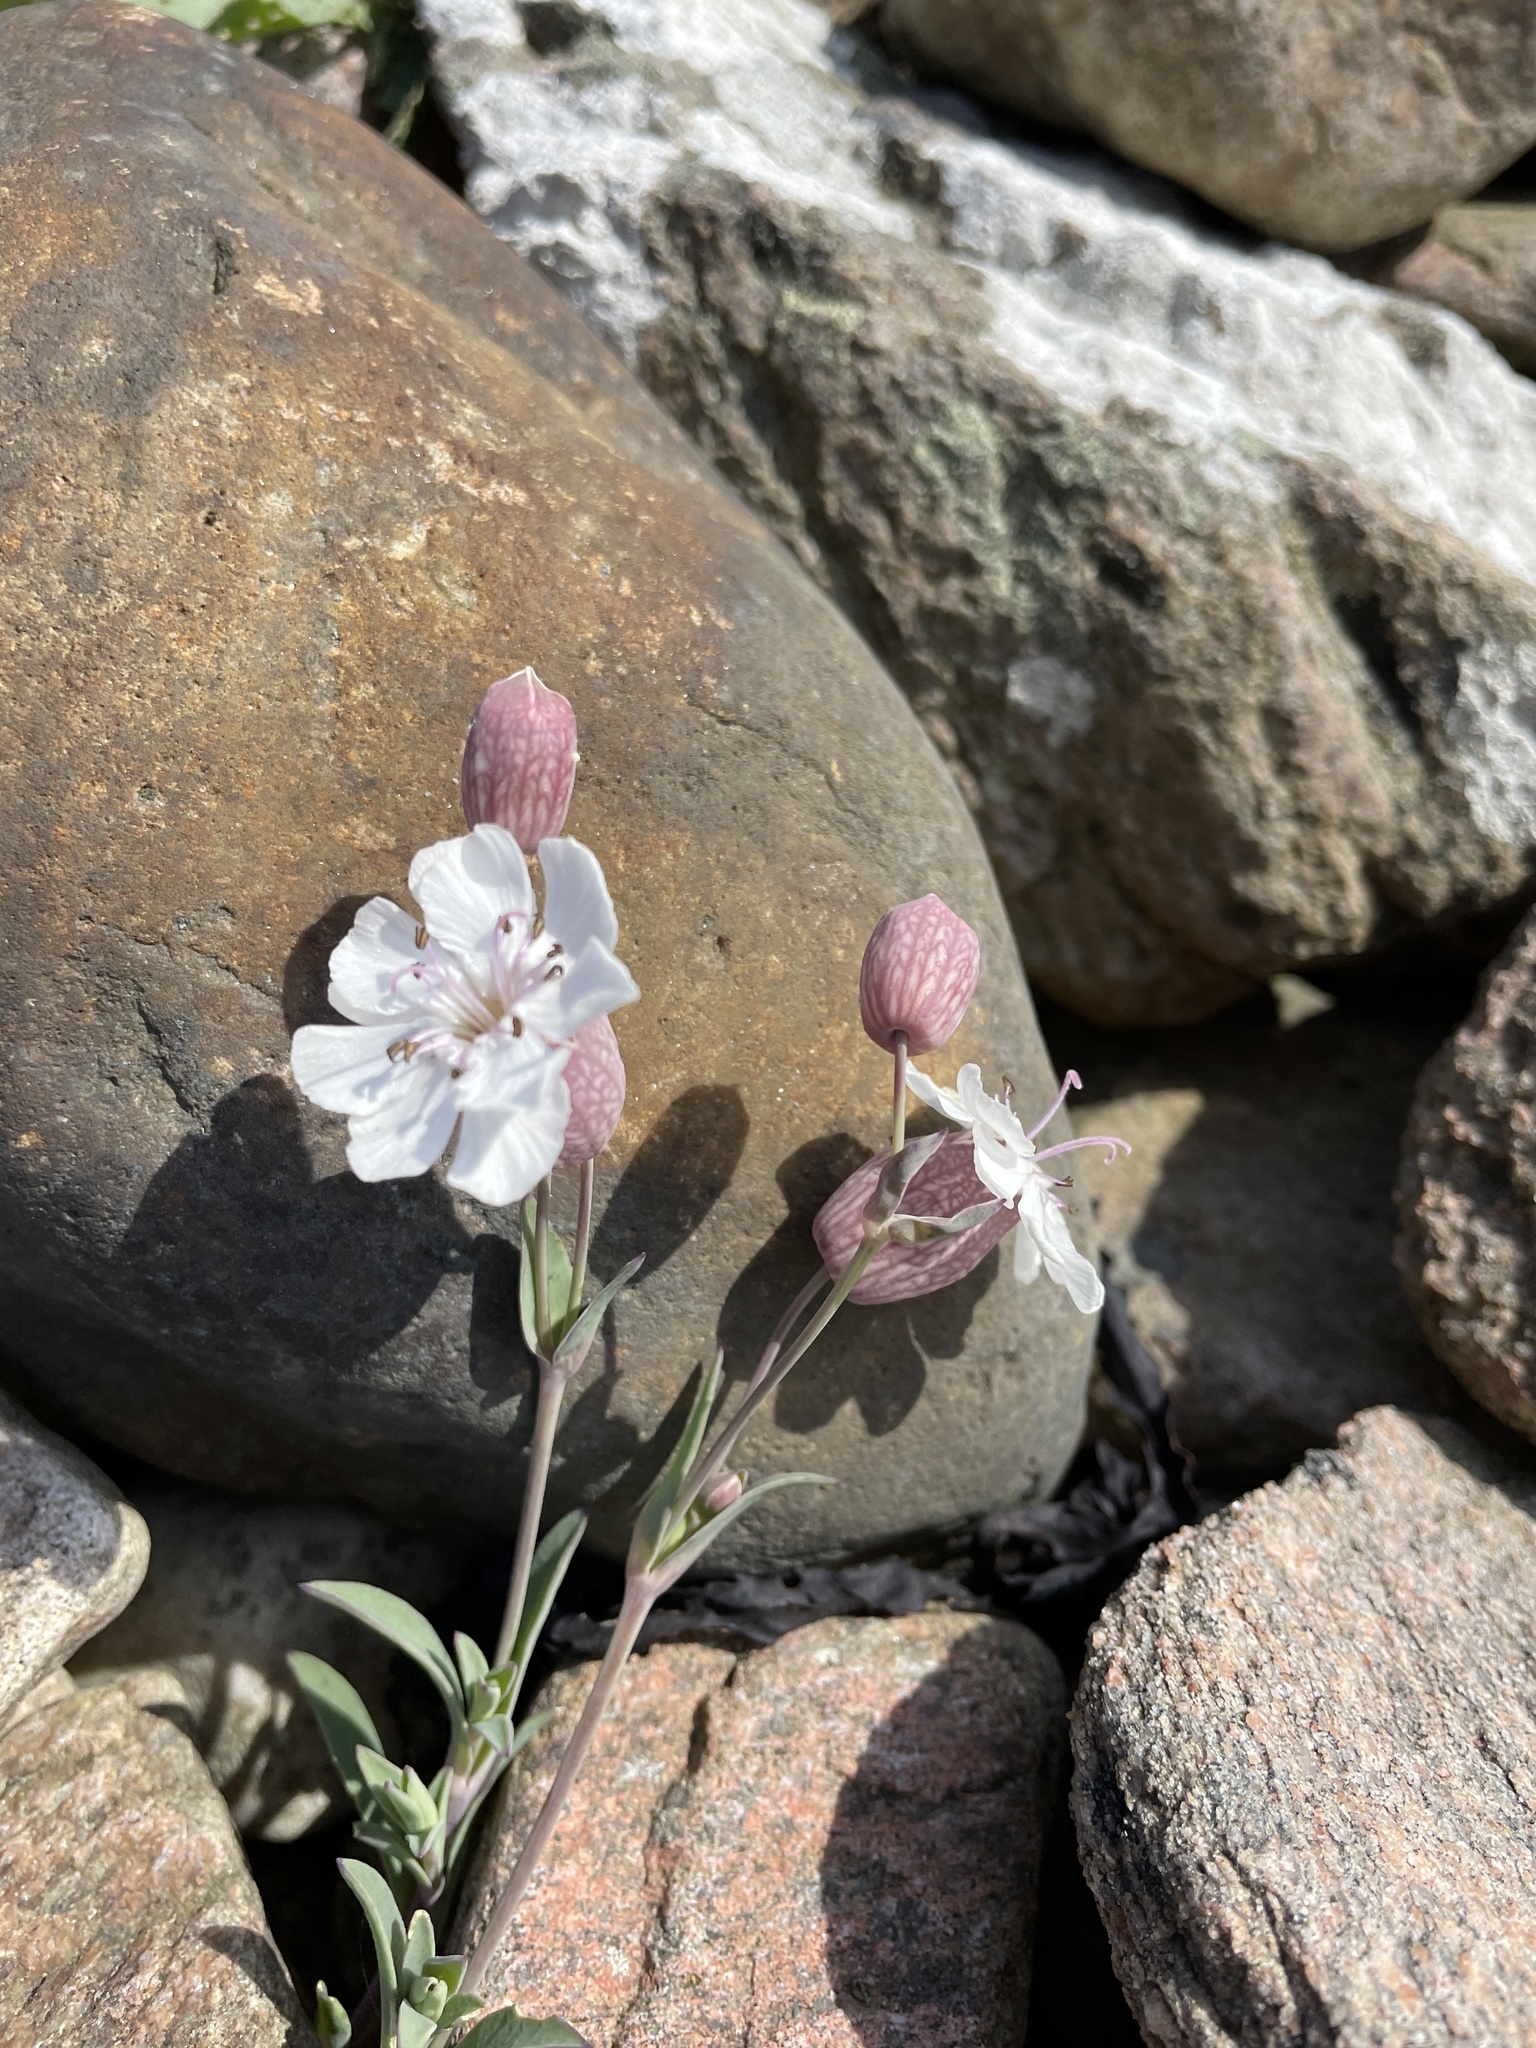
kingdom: Plantae
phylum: Tracheophyta
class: Magnoliopsida
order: Caryophyllales
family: Caryophyllaceae
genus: Silene
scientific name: Silene uniflora
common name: Sea campion
